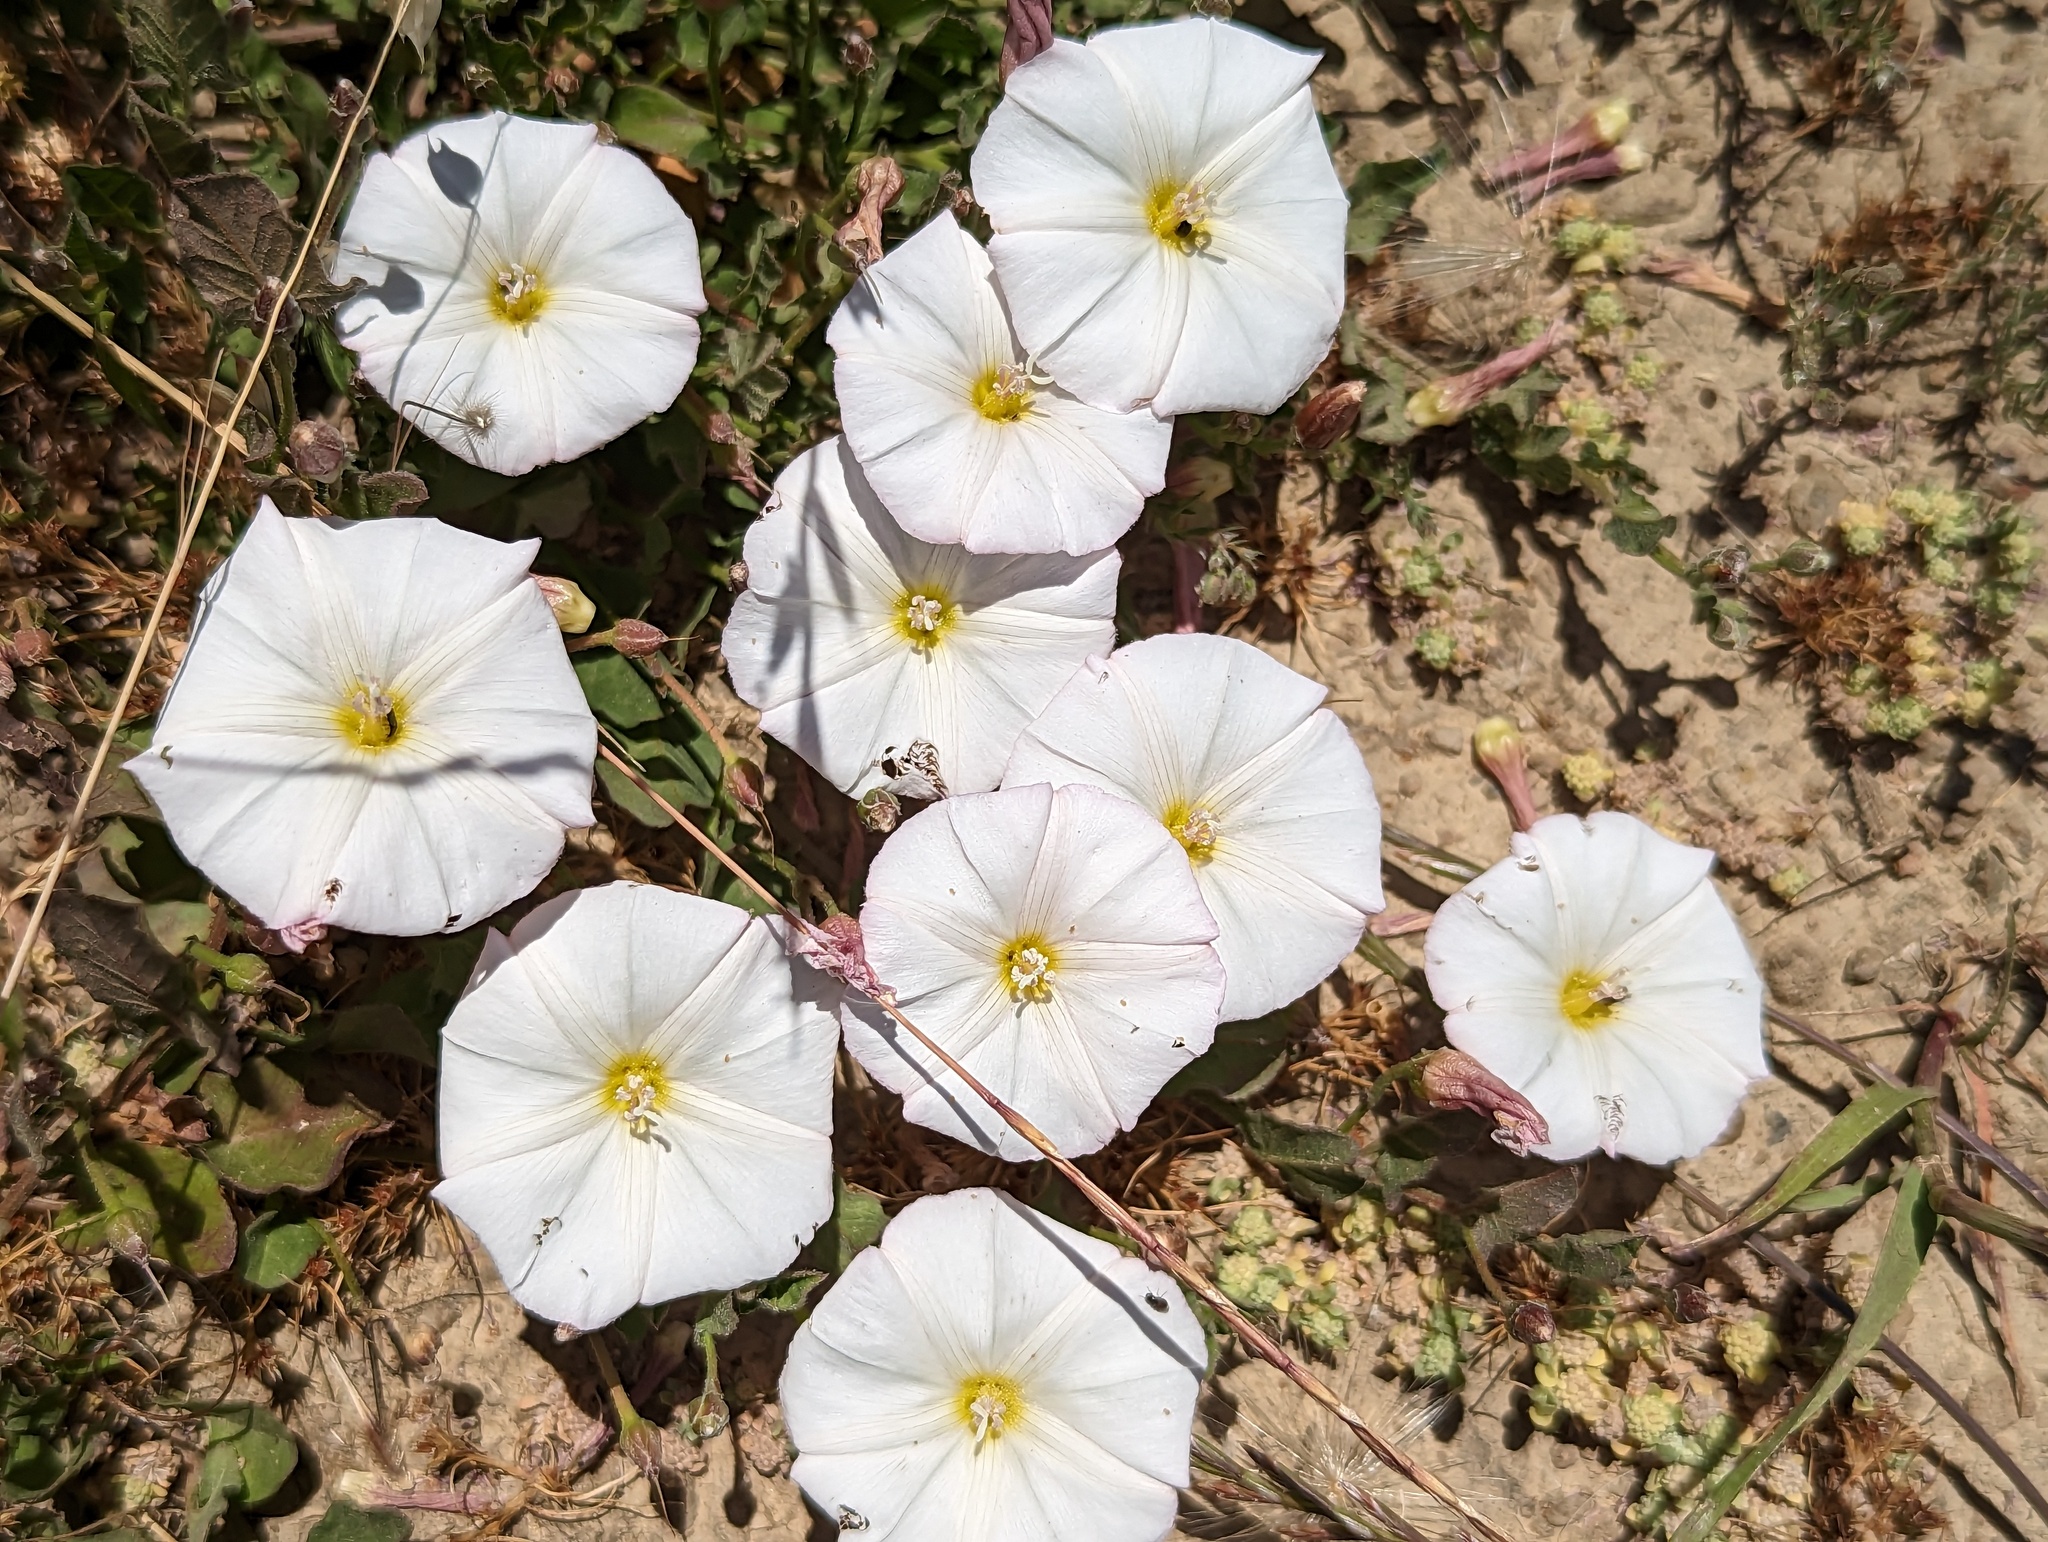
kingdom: Plantae
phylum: Tracheophyta
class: Magnoliopsida
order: Solanales
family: Convolvulaceae
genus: Convolvulus
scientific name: Convolvulus arvensis
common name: Field bindweed
